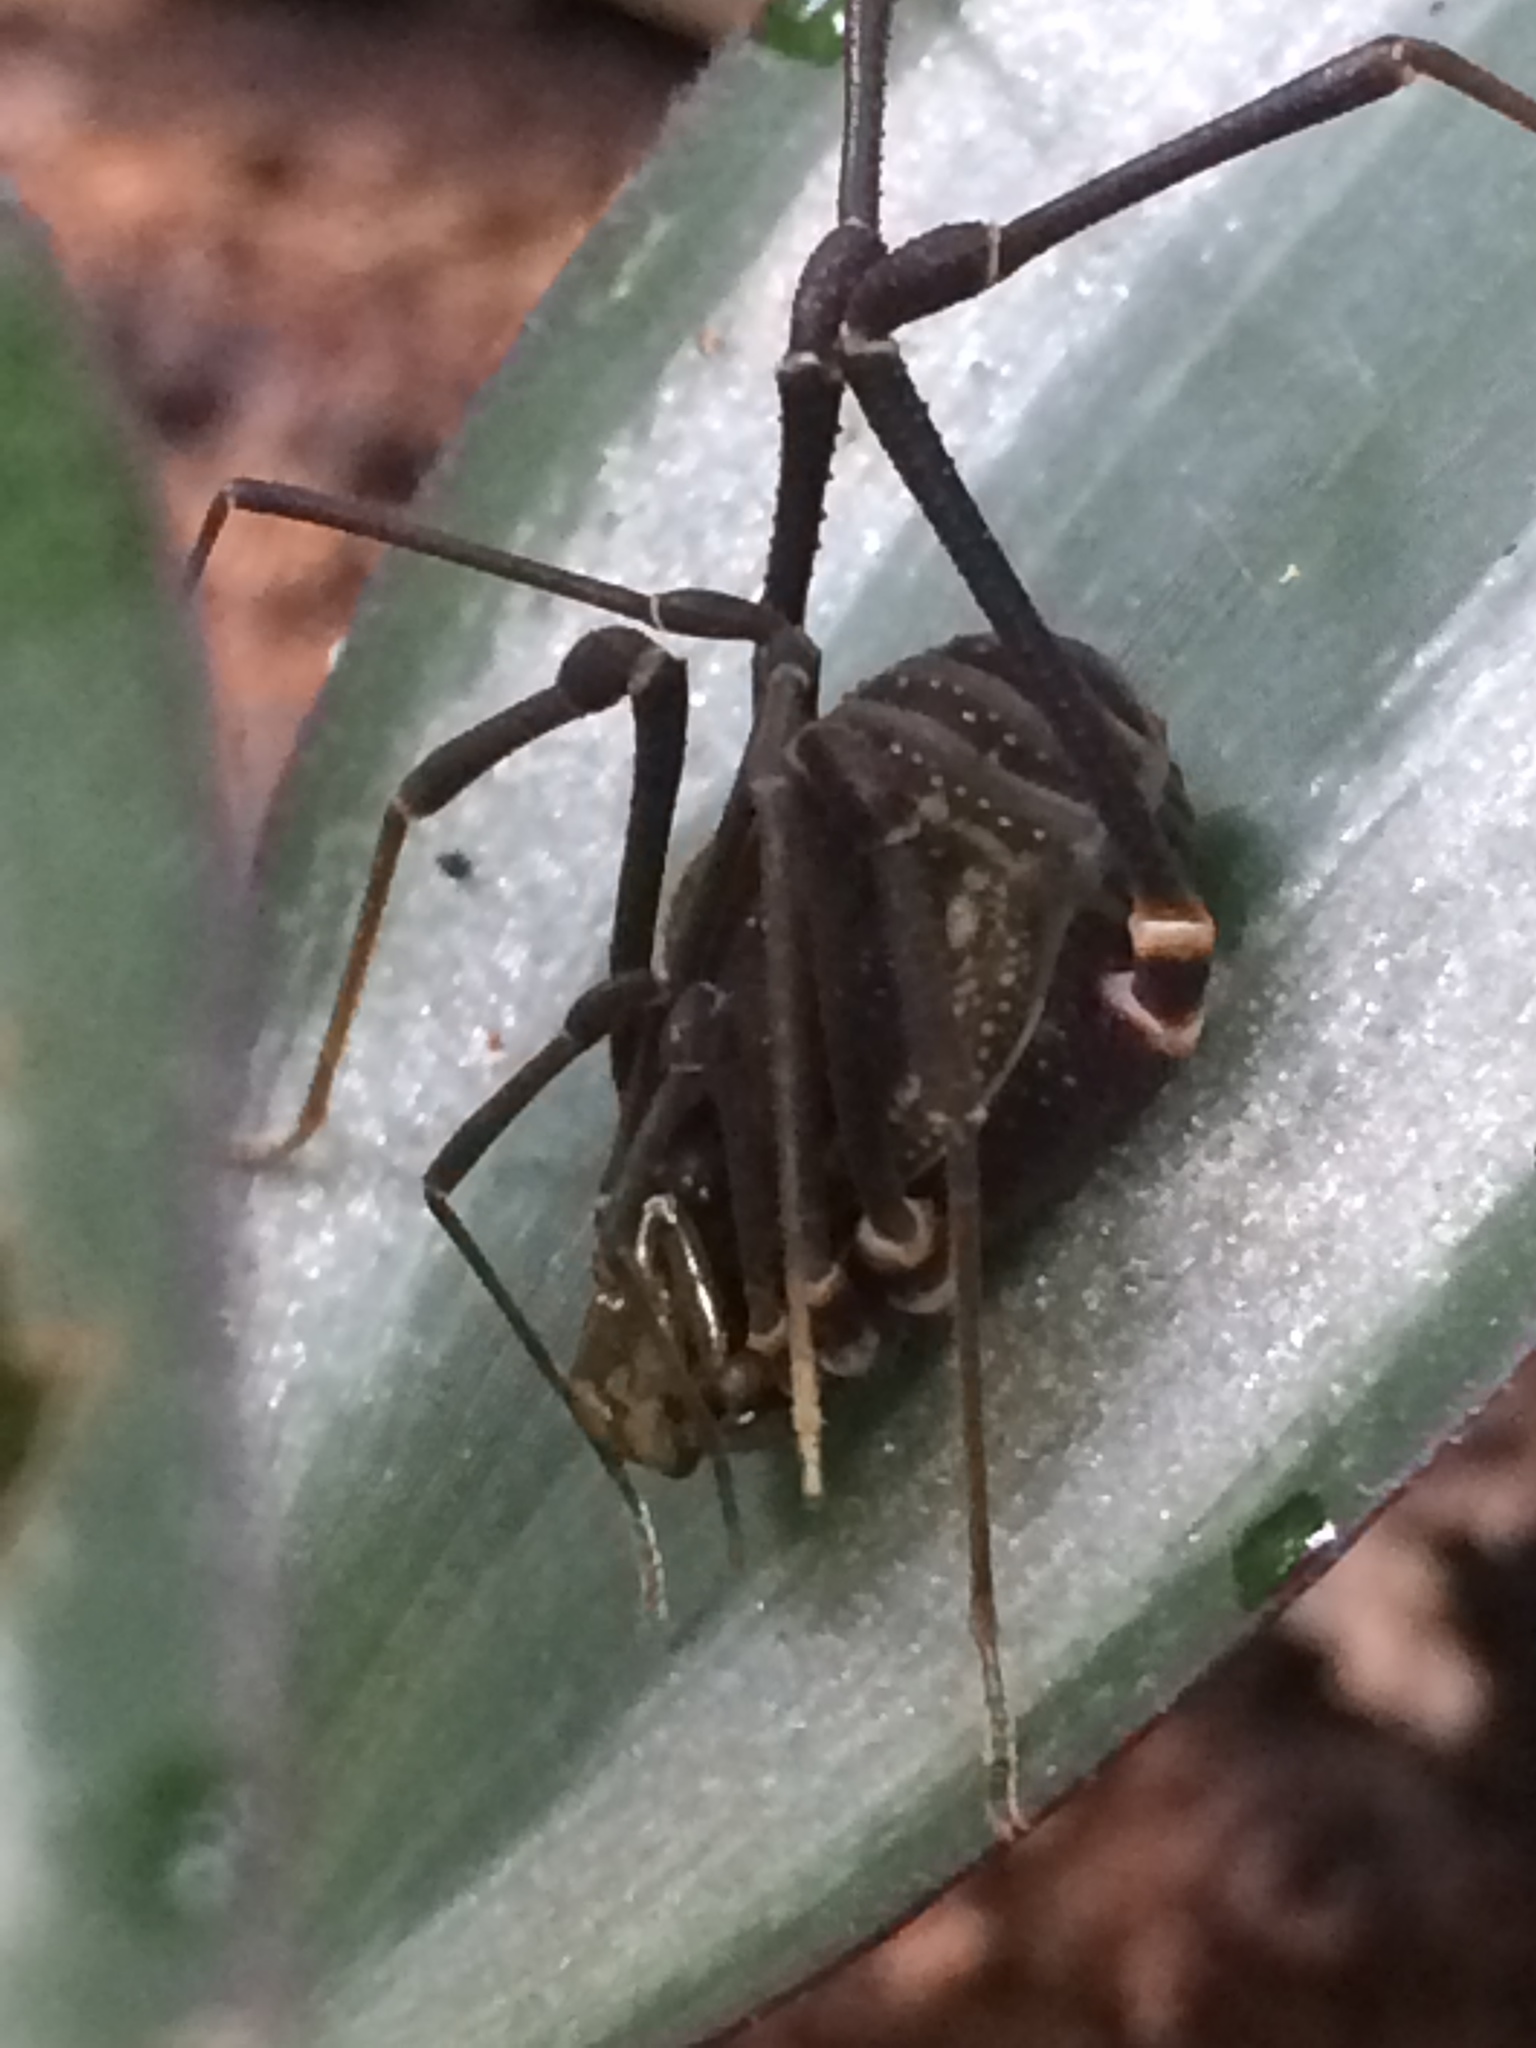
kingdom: Animalia
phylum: Arthropoda
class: Arachnida
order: Opiliones
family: Gonyleptidae
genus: Geraeocormobius
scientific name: Geraeocormobius sylvarum
